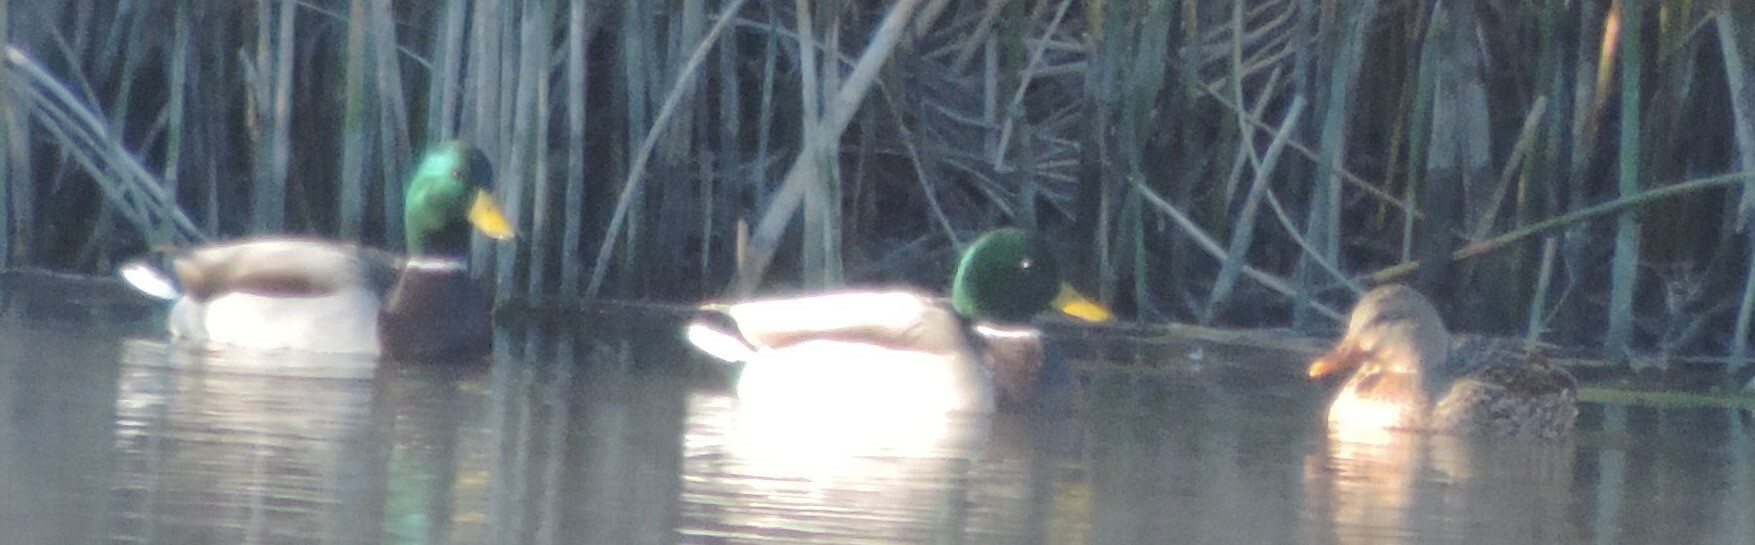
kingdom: Animalia
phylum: Chordata
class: Aves
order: Anseriformes
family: Anatidae
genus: Anas
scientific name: Anas platyrhynchos
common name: Mallard
